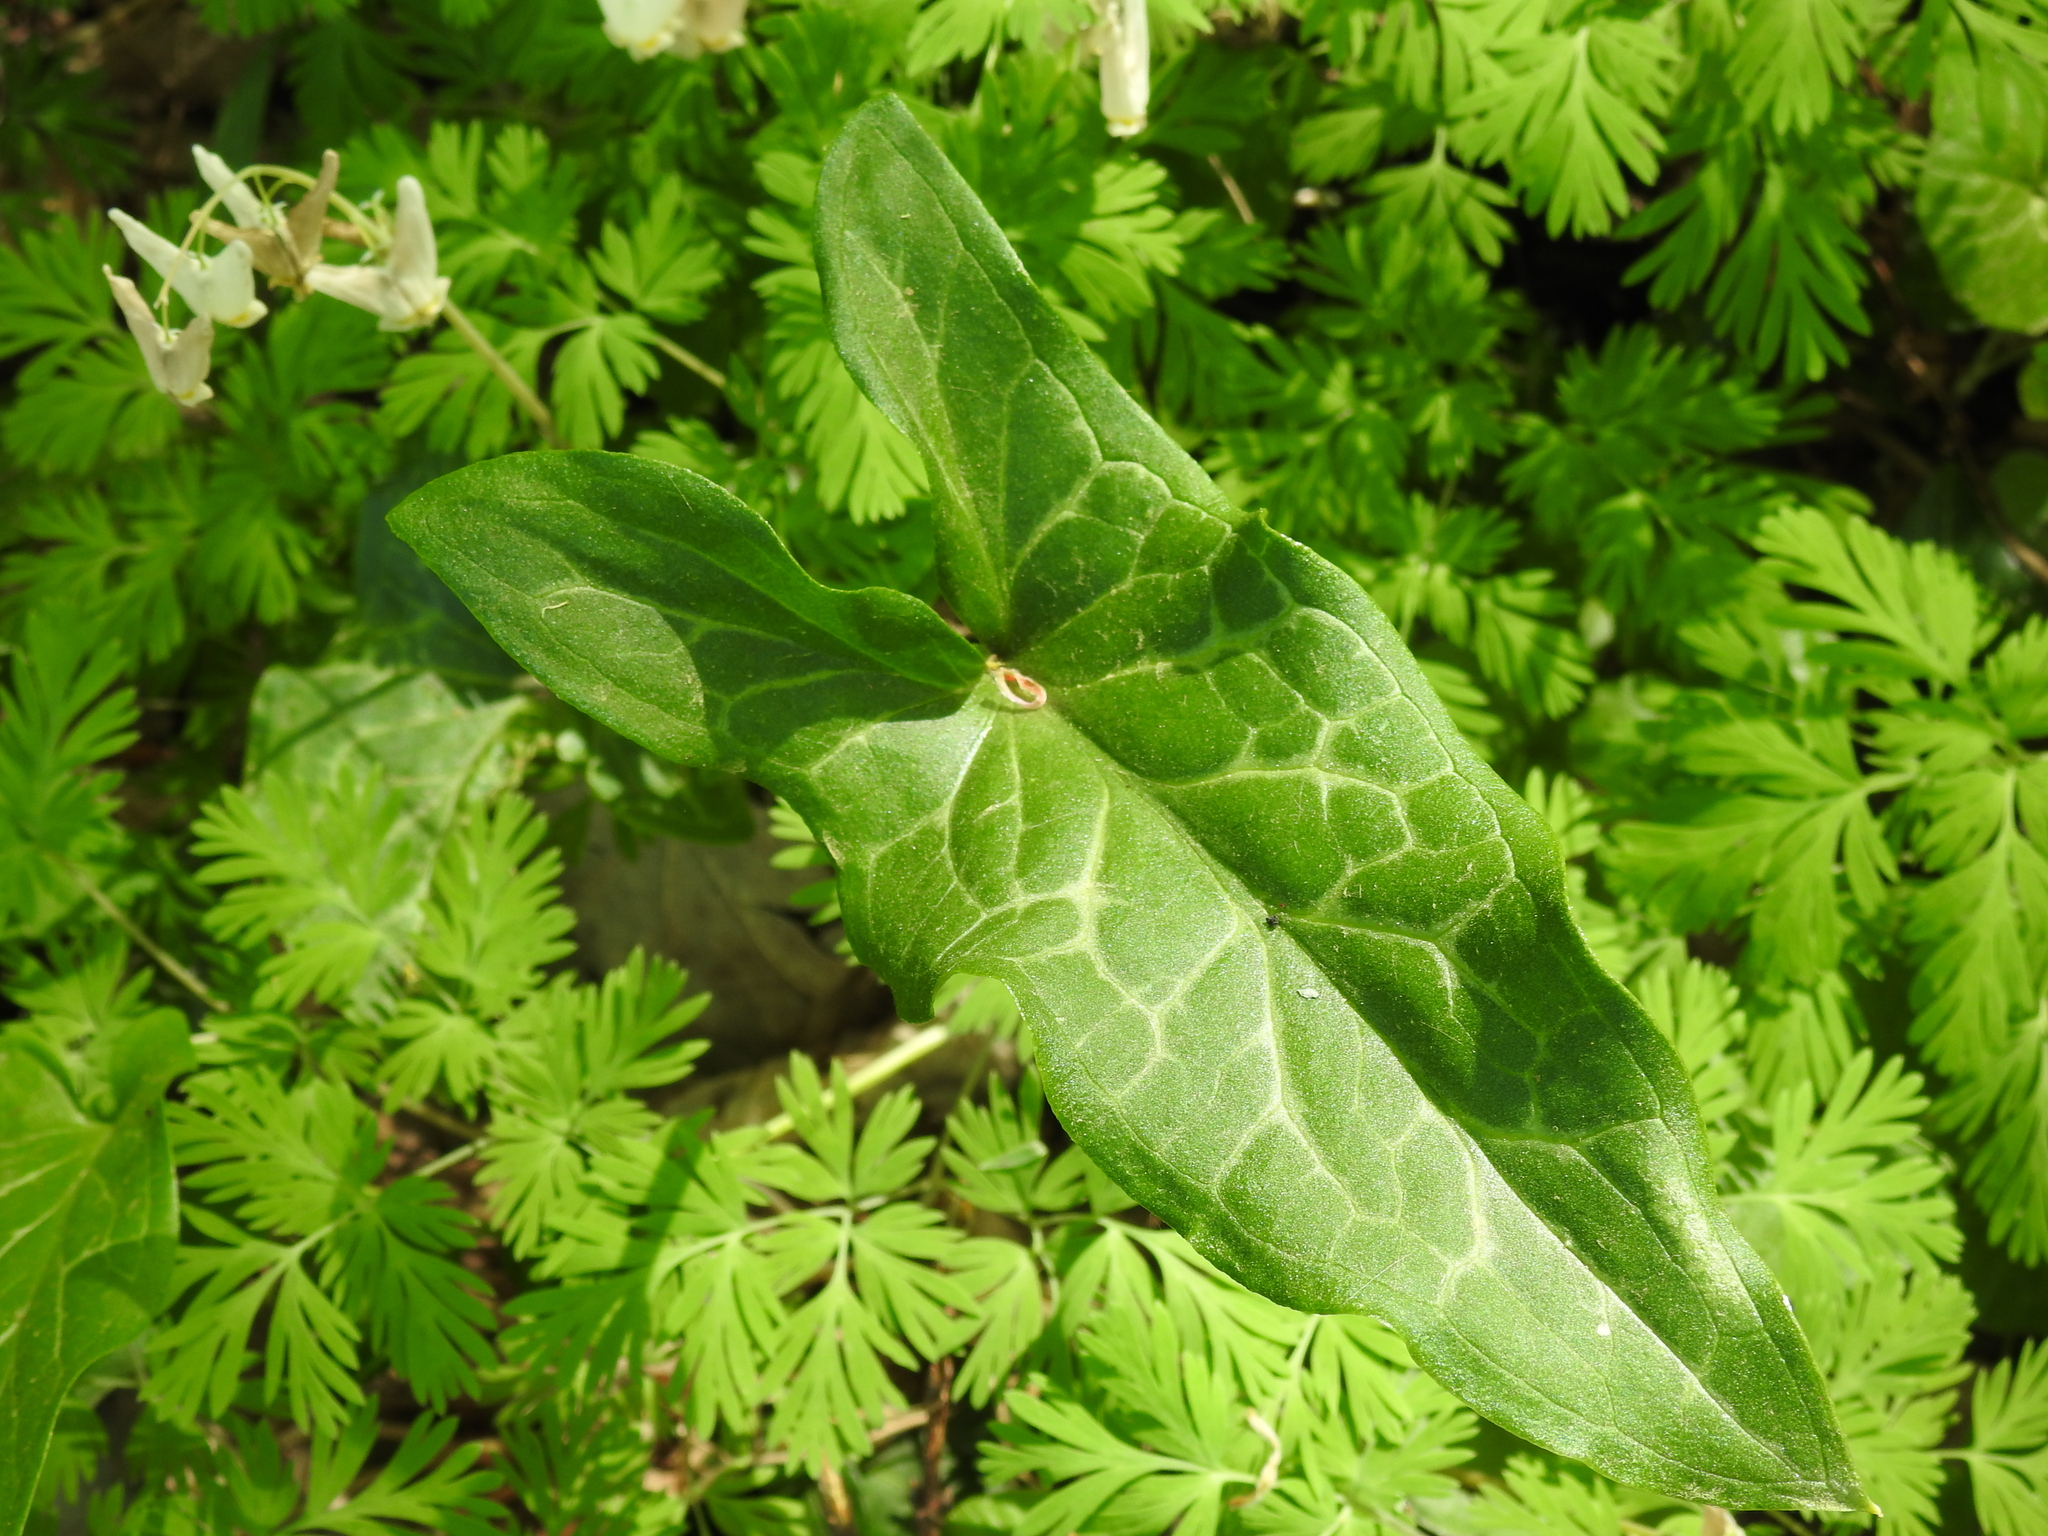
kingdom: Plantae
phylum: Tracheophyta
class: Liliopsida
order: Alismatales
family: Araceae
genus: Arum
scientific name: Arum italicum
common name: Italian lords-and-ladies
